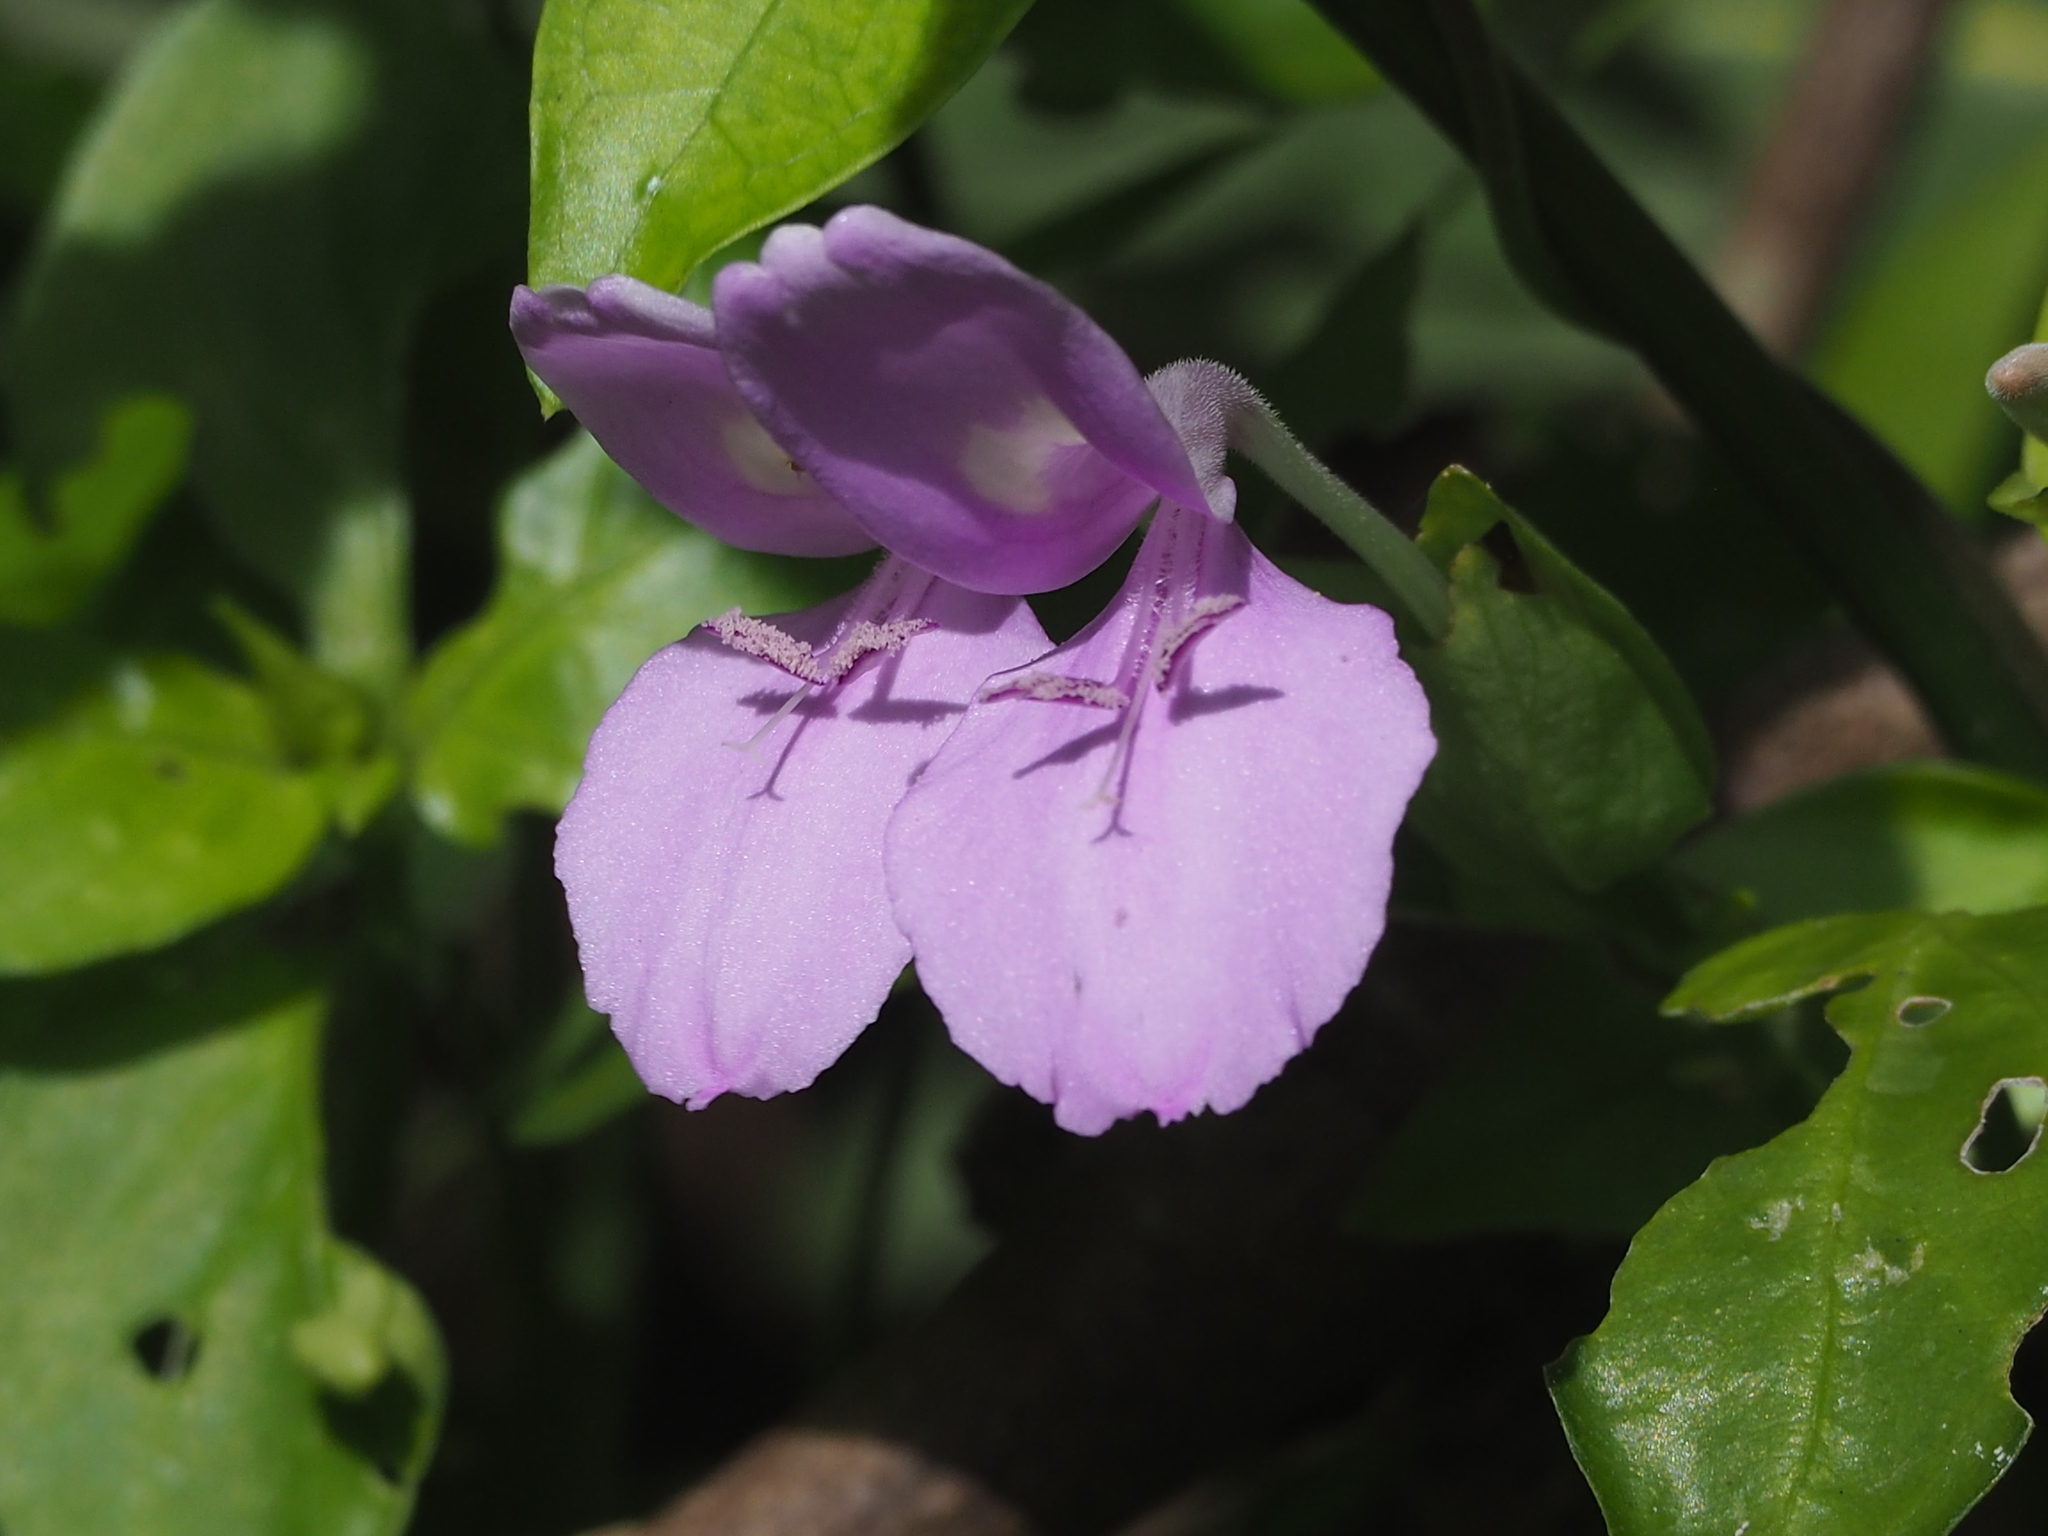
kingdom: Plantae
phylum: Tracheophyta
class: Magnoliopsida
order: Lamiales
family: Acanthaceae
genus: Dicliptera
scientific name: Dicliptera tinctoria
